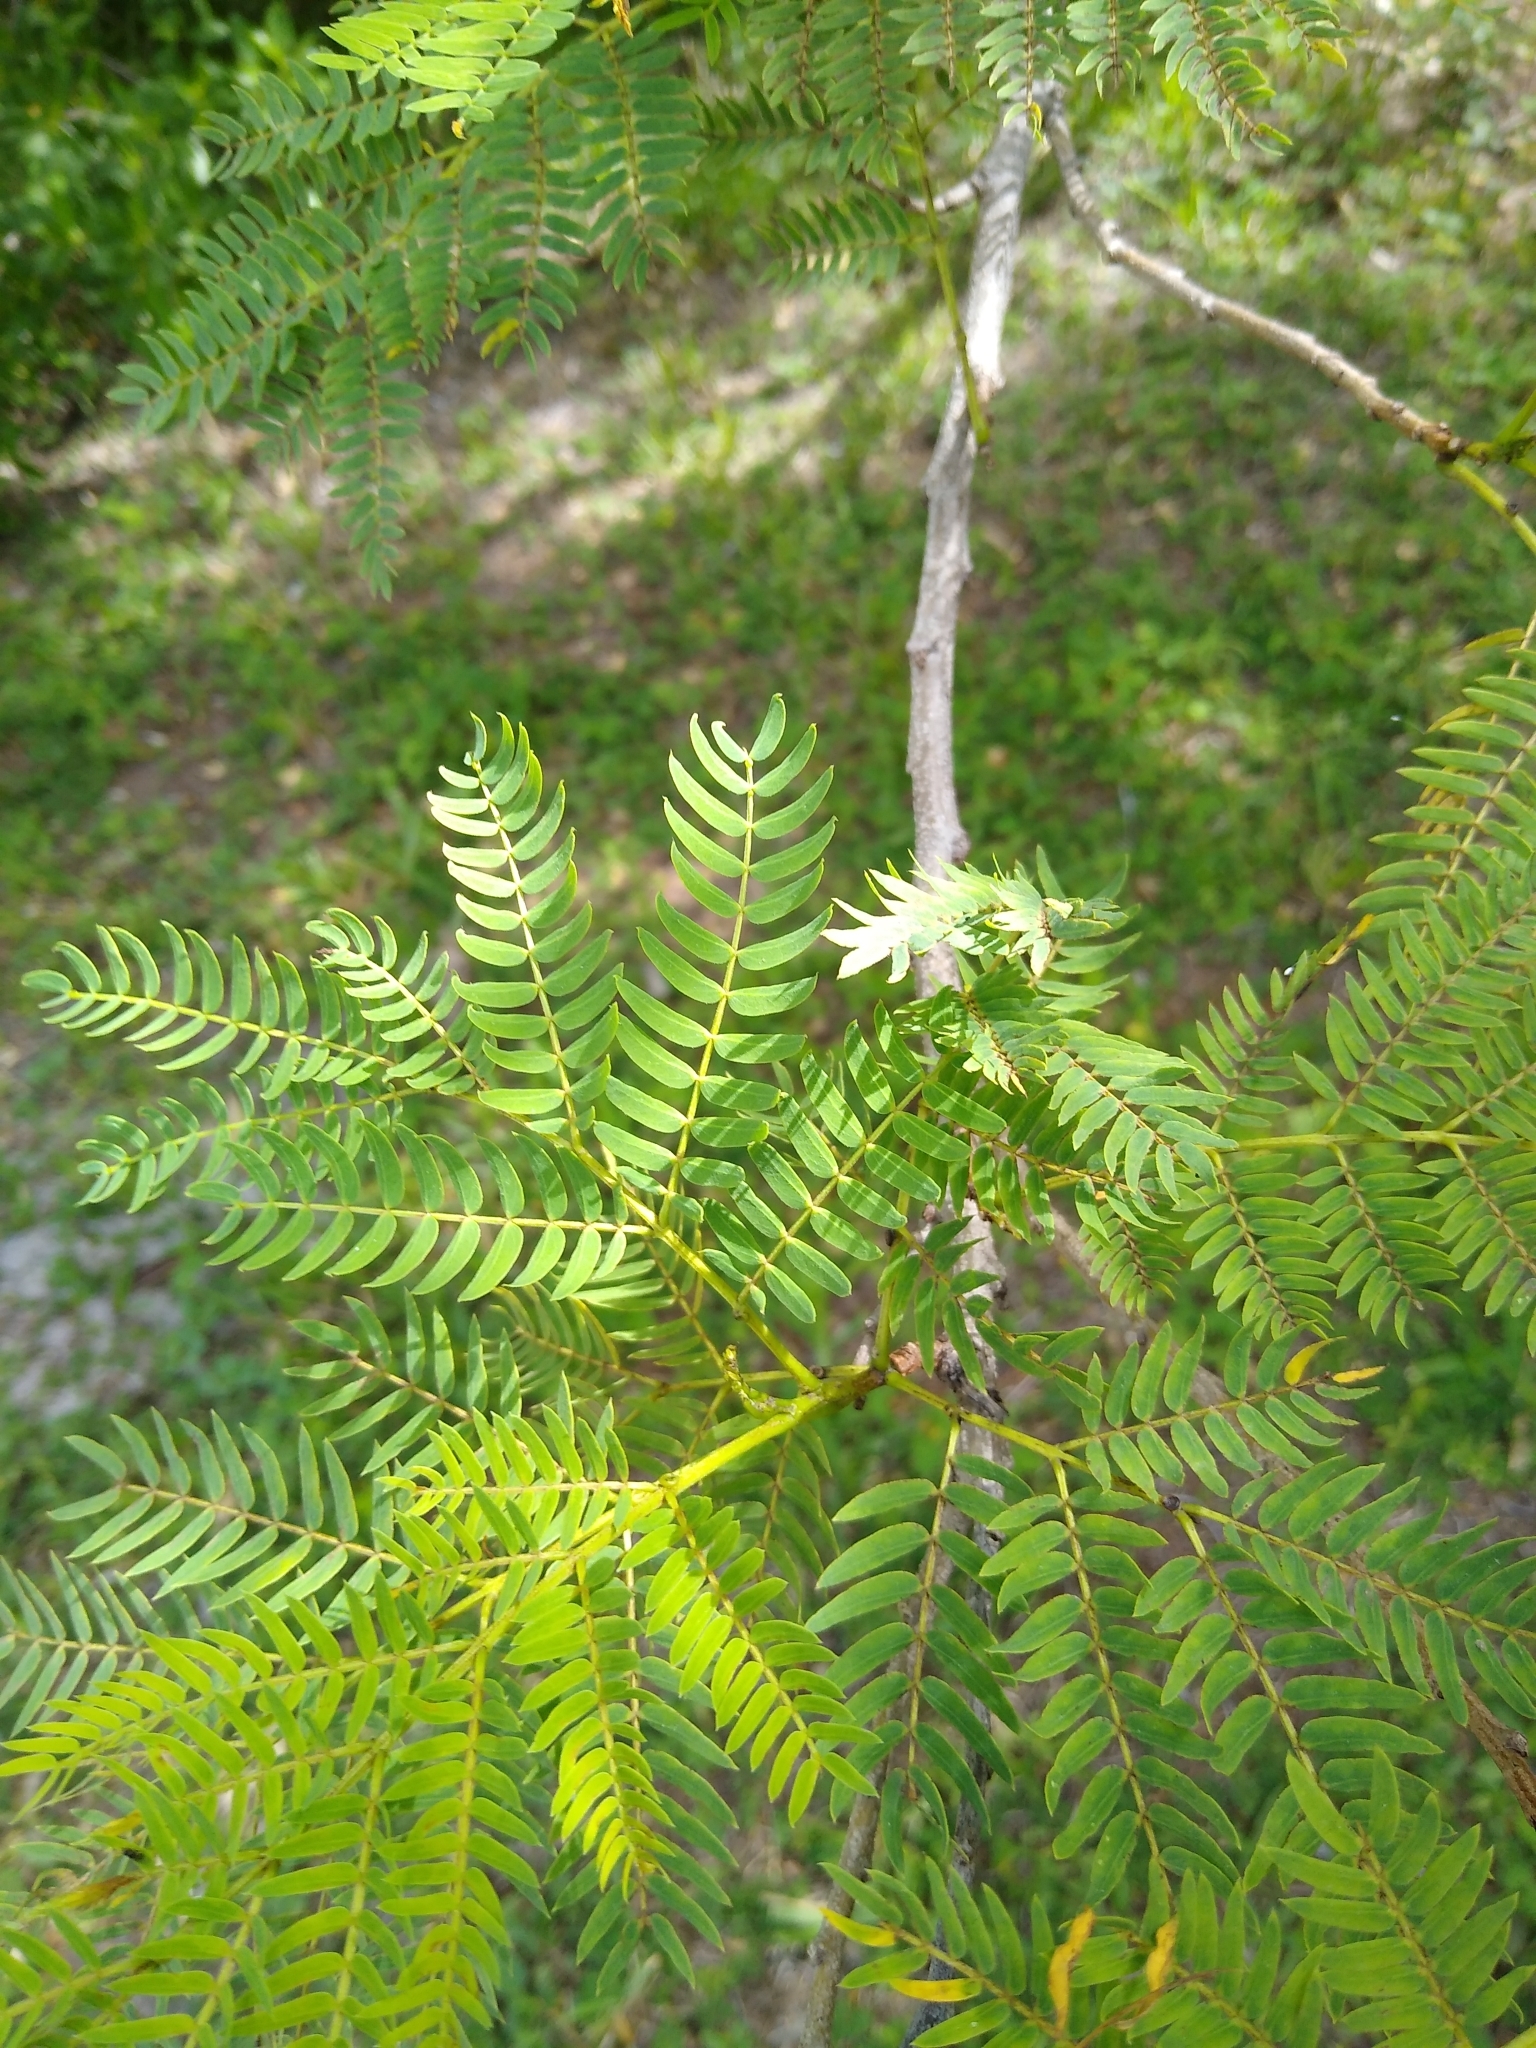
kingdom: Plantae
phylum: Tracheophyta
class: Magnoliopsida
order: Fabales
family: Fabaceae
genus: Leucaena
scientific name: Leucaena leucocephala
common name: White leadtree
